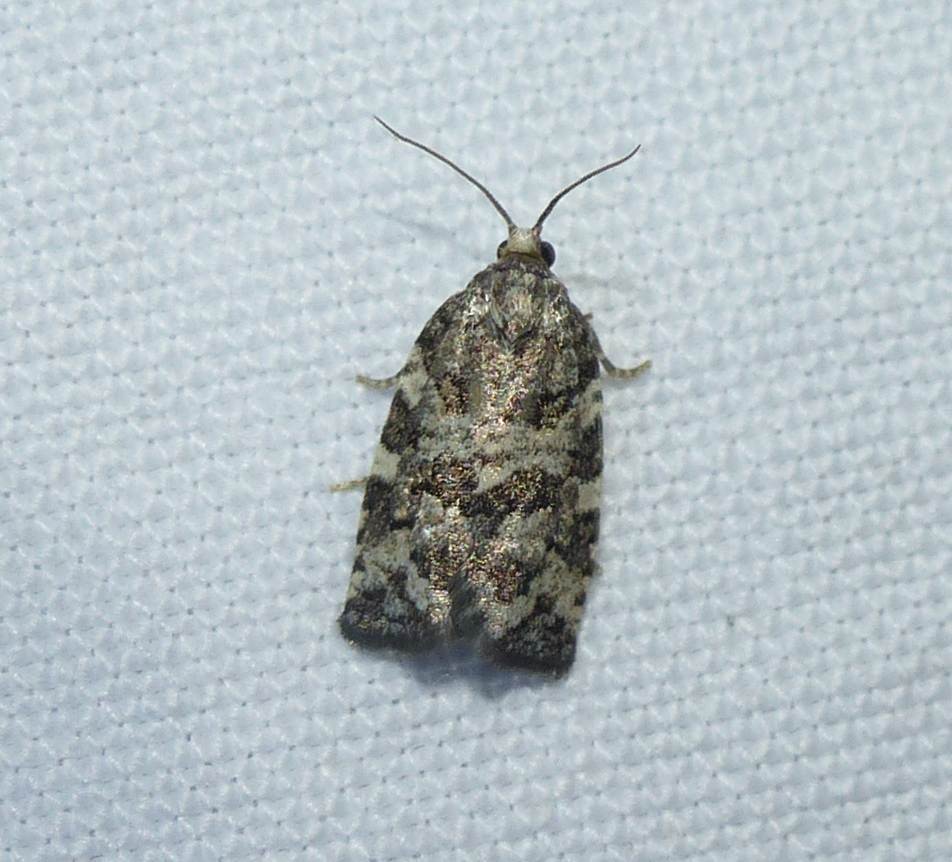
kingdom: Animalia
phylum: Arthropoda
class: Insecta
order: Lepidoptera
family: Tortricidae
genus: Archips
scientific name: Archips packardiana
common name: Spring spruce needle moth
